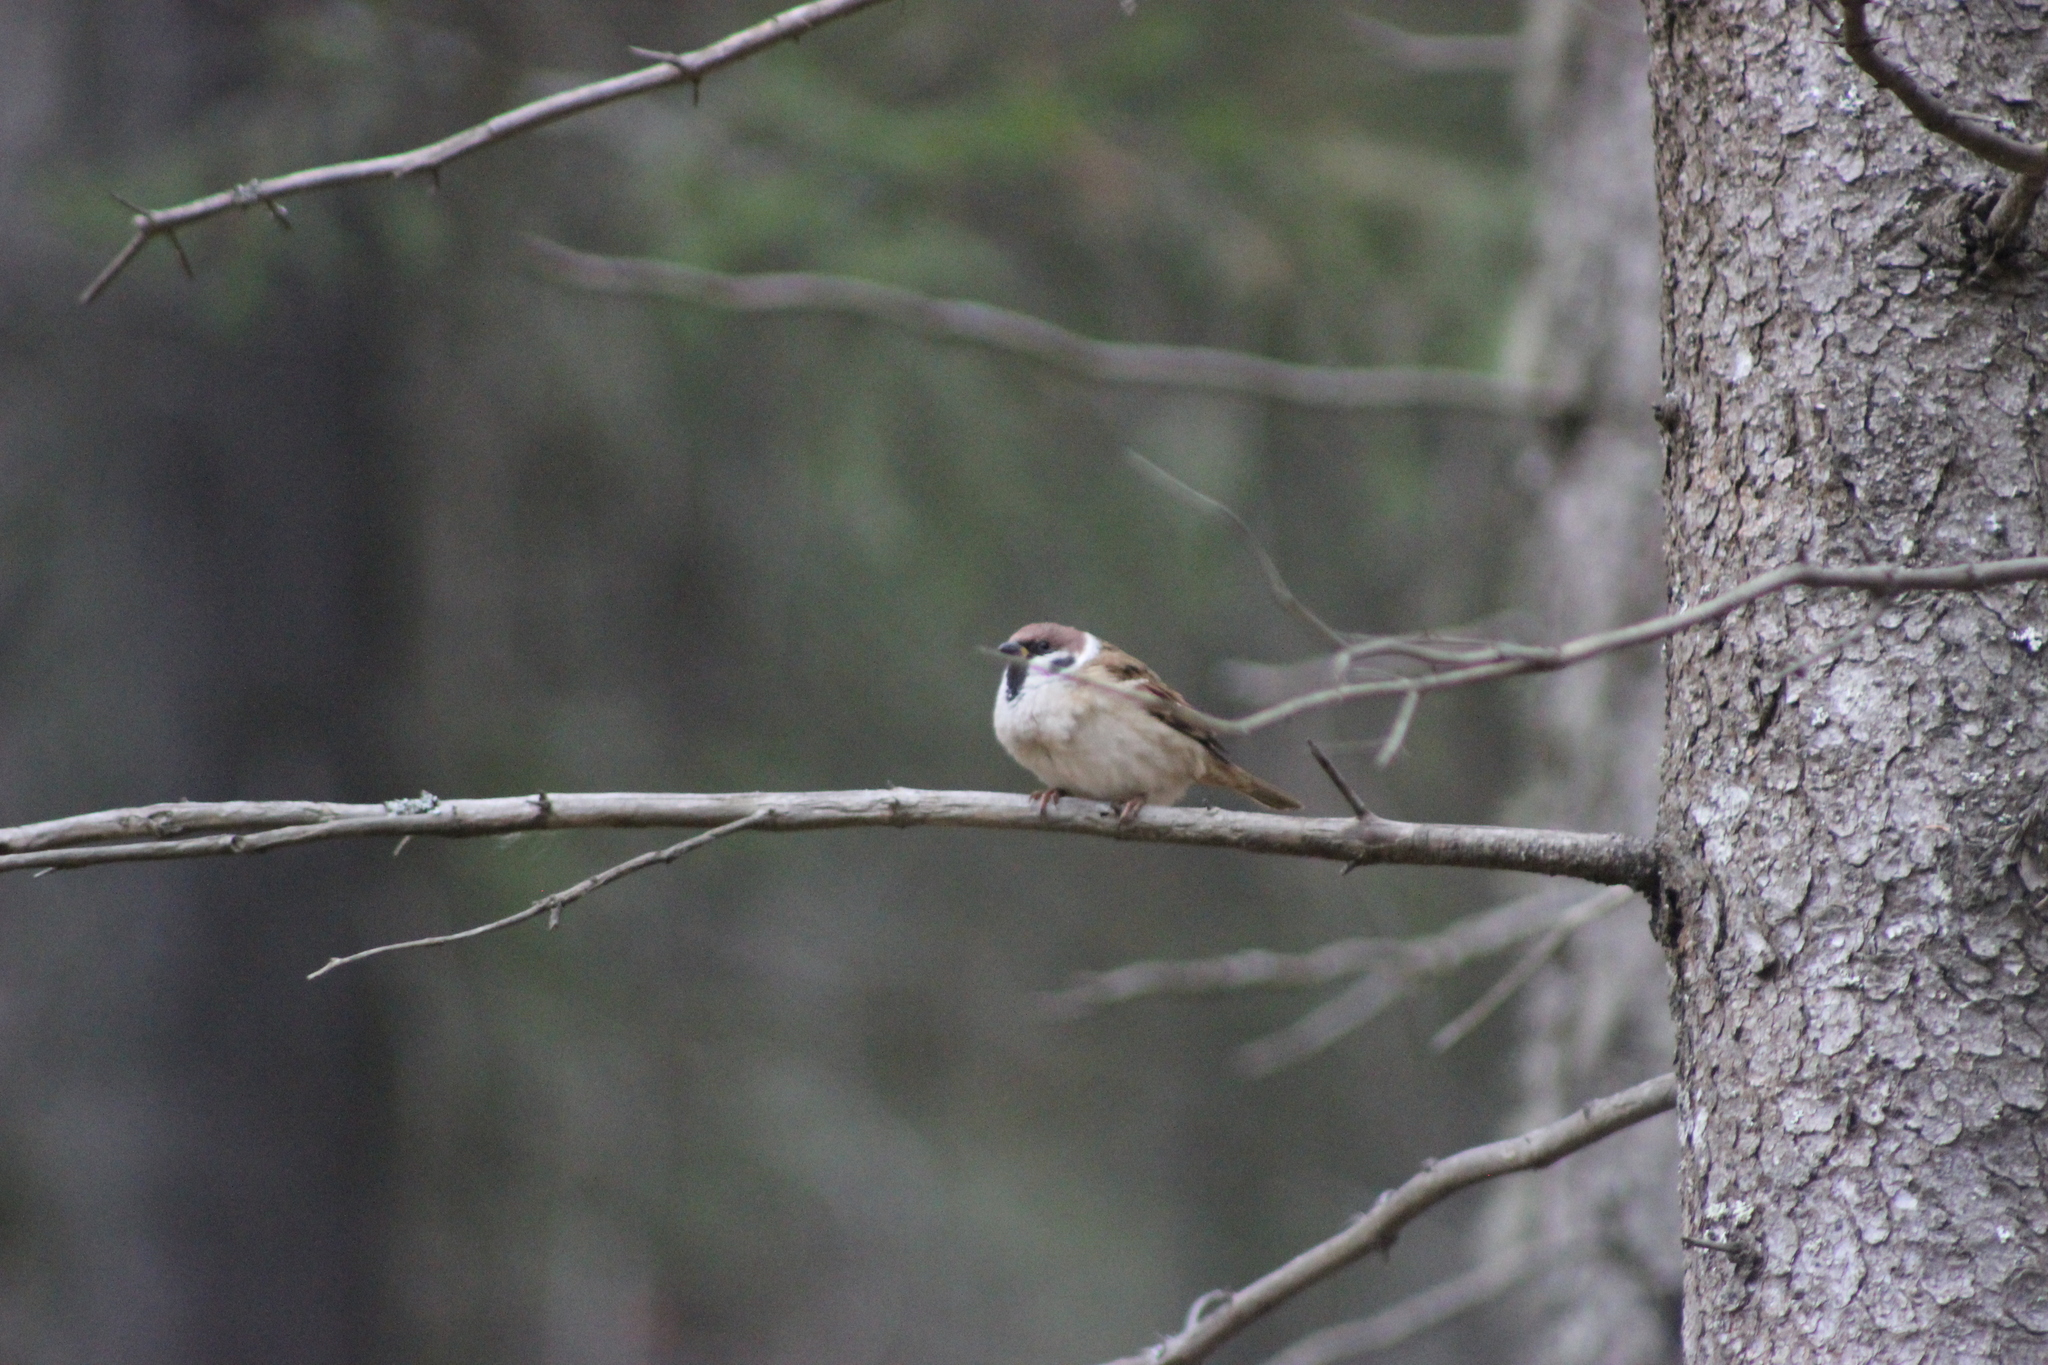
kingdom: Animalia
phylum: Chordata
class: Aves
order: Passeriformes
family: Passeridae
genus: Passer
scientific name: Passer montanus
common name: Eurasian tree sparrow
